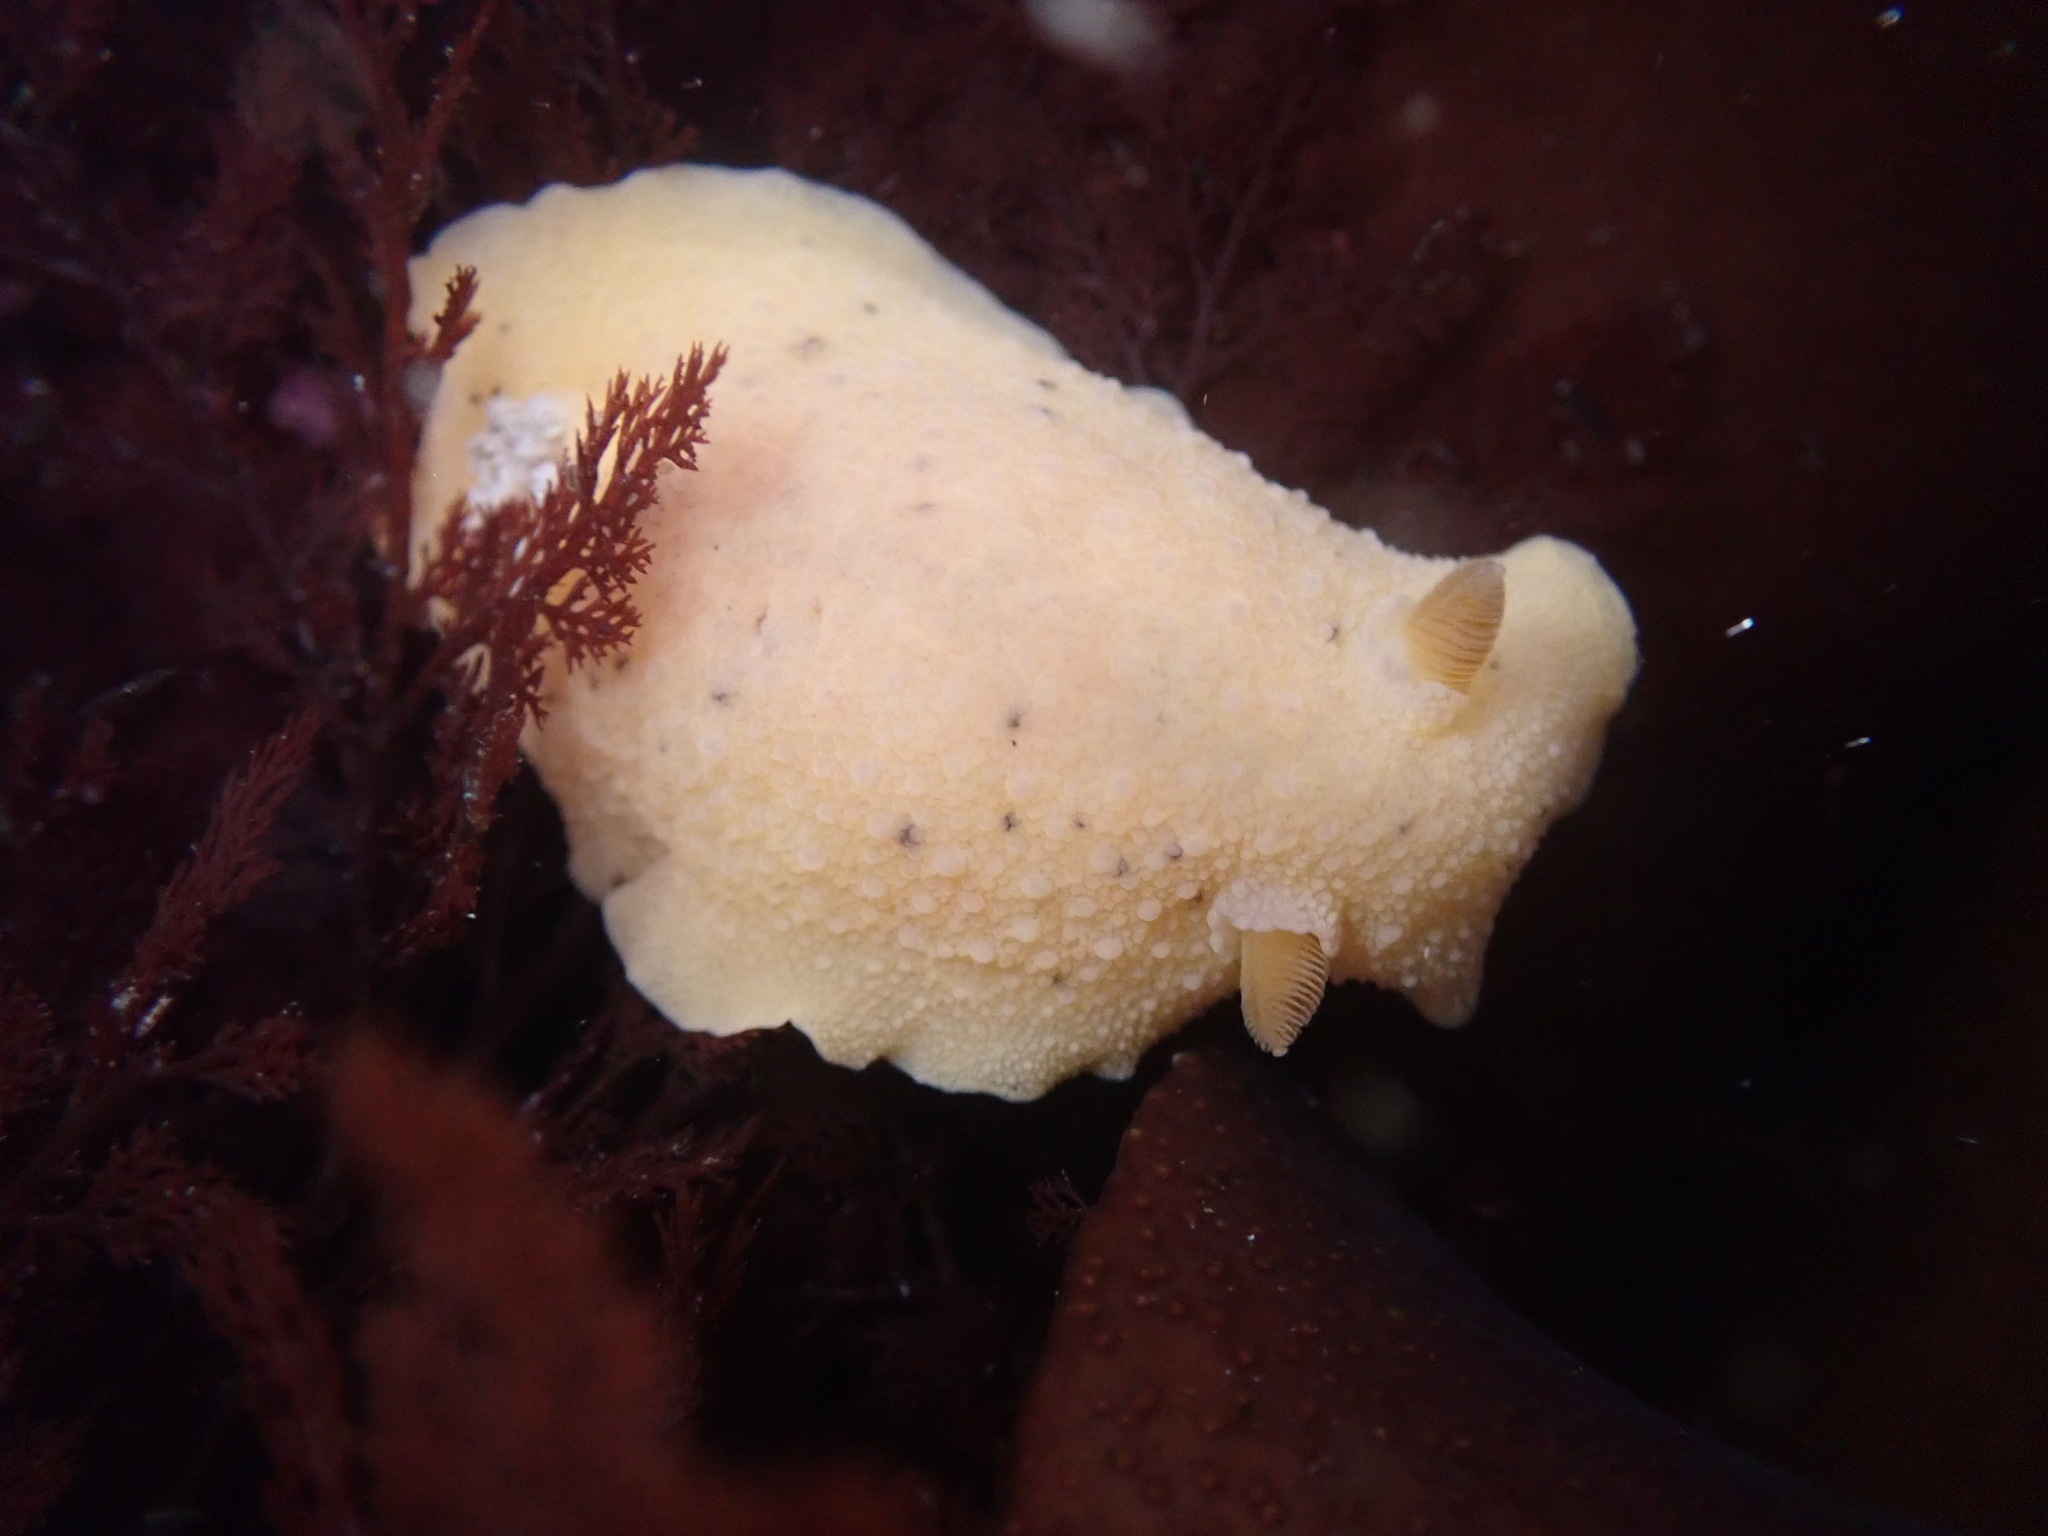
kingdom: Animalia
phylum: Mollusca
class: Gastropoda
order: Nudibranchia
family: Discodorididae
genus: Geitodoris
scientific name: Geitodoris heathi
